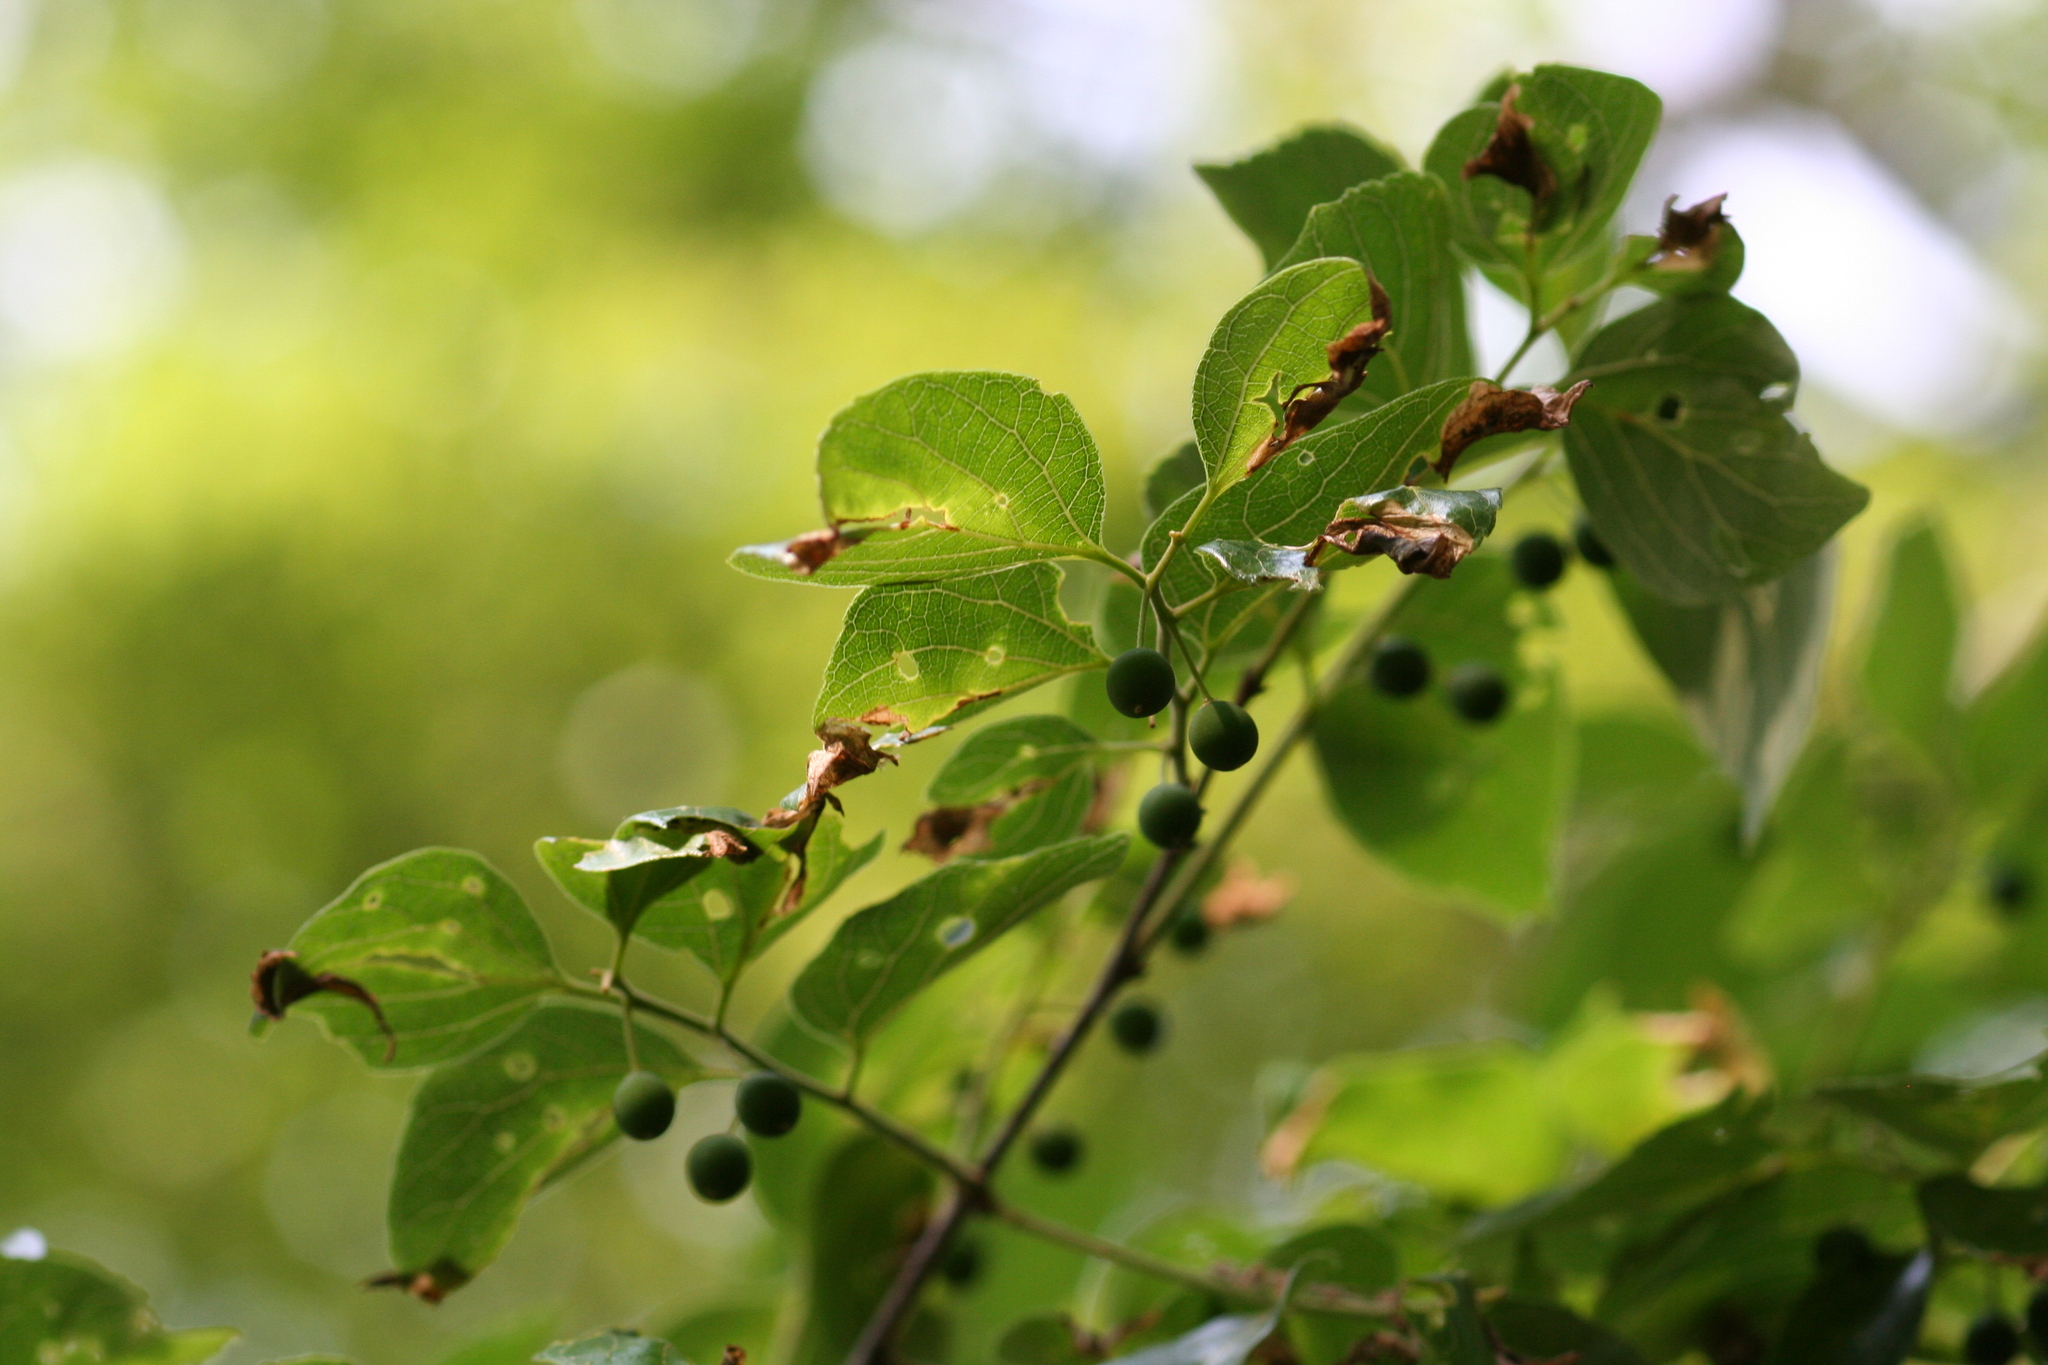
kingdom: Plantae
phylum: Tracheophyta
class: Magnoliopsida
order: Rosales
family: Cannabaceae
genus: Celtis
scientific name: Celtis sinensis
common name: Chinese hackberry
